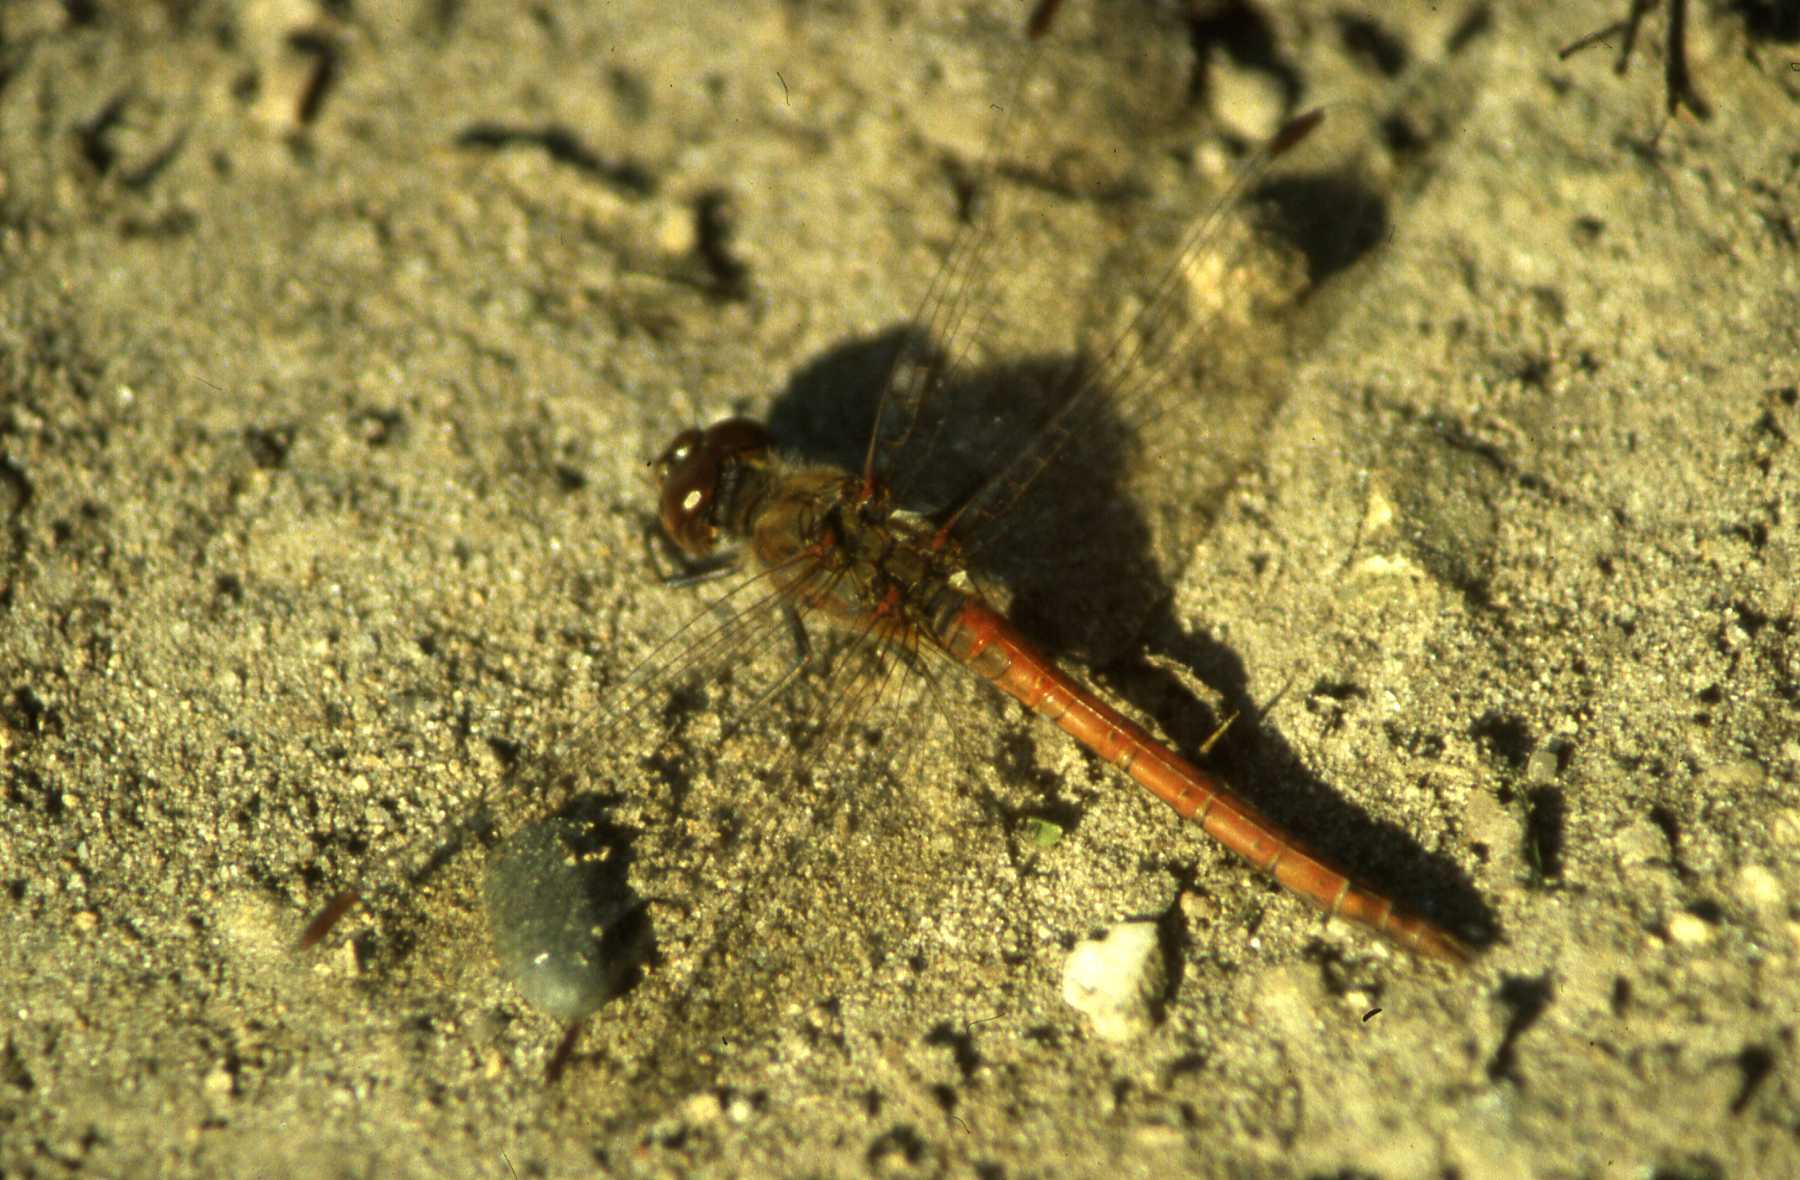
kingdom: Animalia
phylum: Arthropoda
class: Insecta
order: Odonata
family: Libellulidae
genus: Sympetrum
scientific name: Sympetrum striolatum
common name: Common darter
